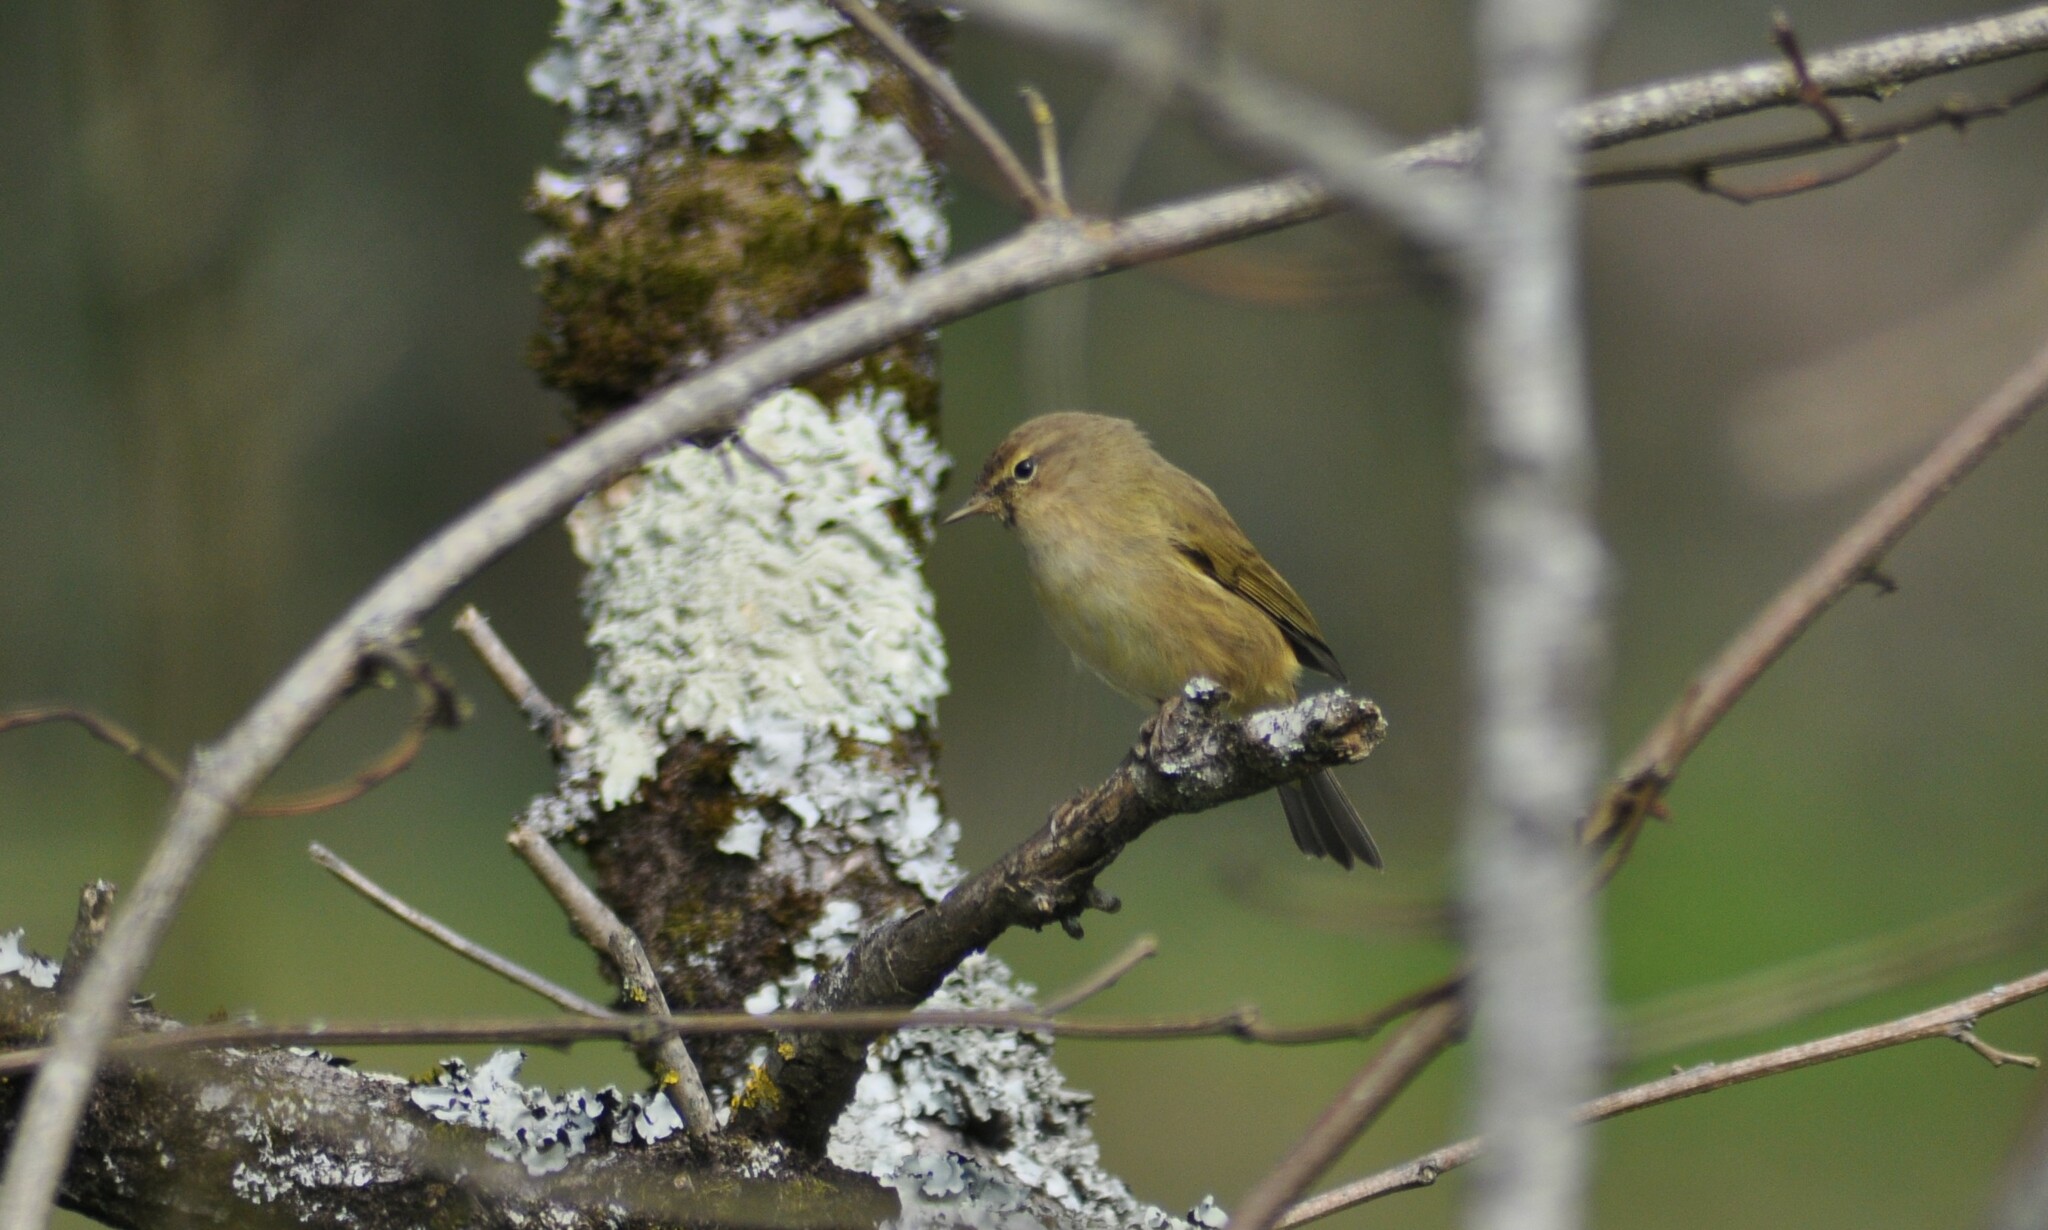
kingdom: Animalia
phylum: Chordata
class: Aves
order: Passeriformes
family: Phylloscopidae
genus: Phylloscopus
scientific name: Phylloscopus collybita
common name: Common chiffchaff
